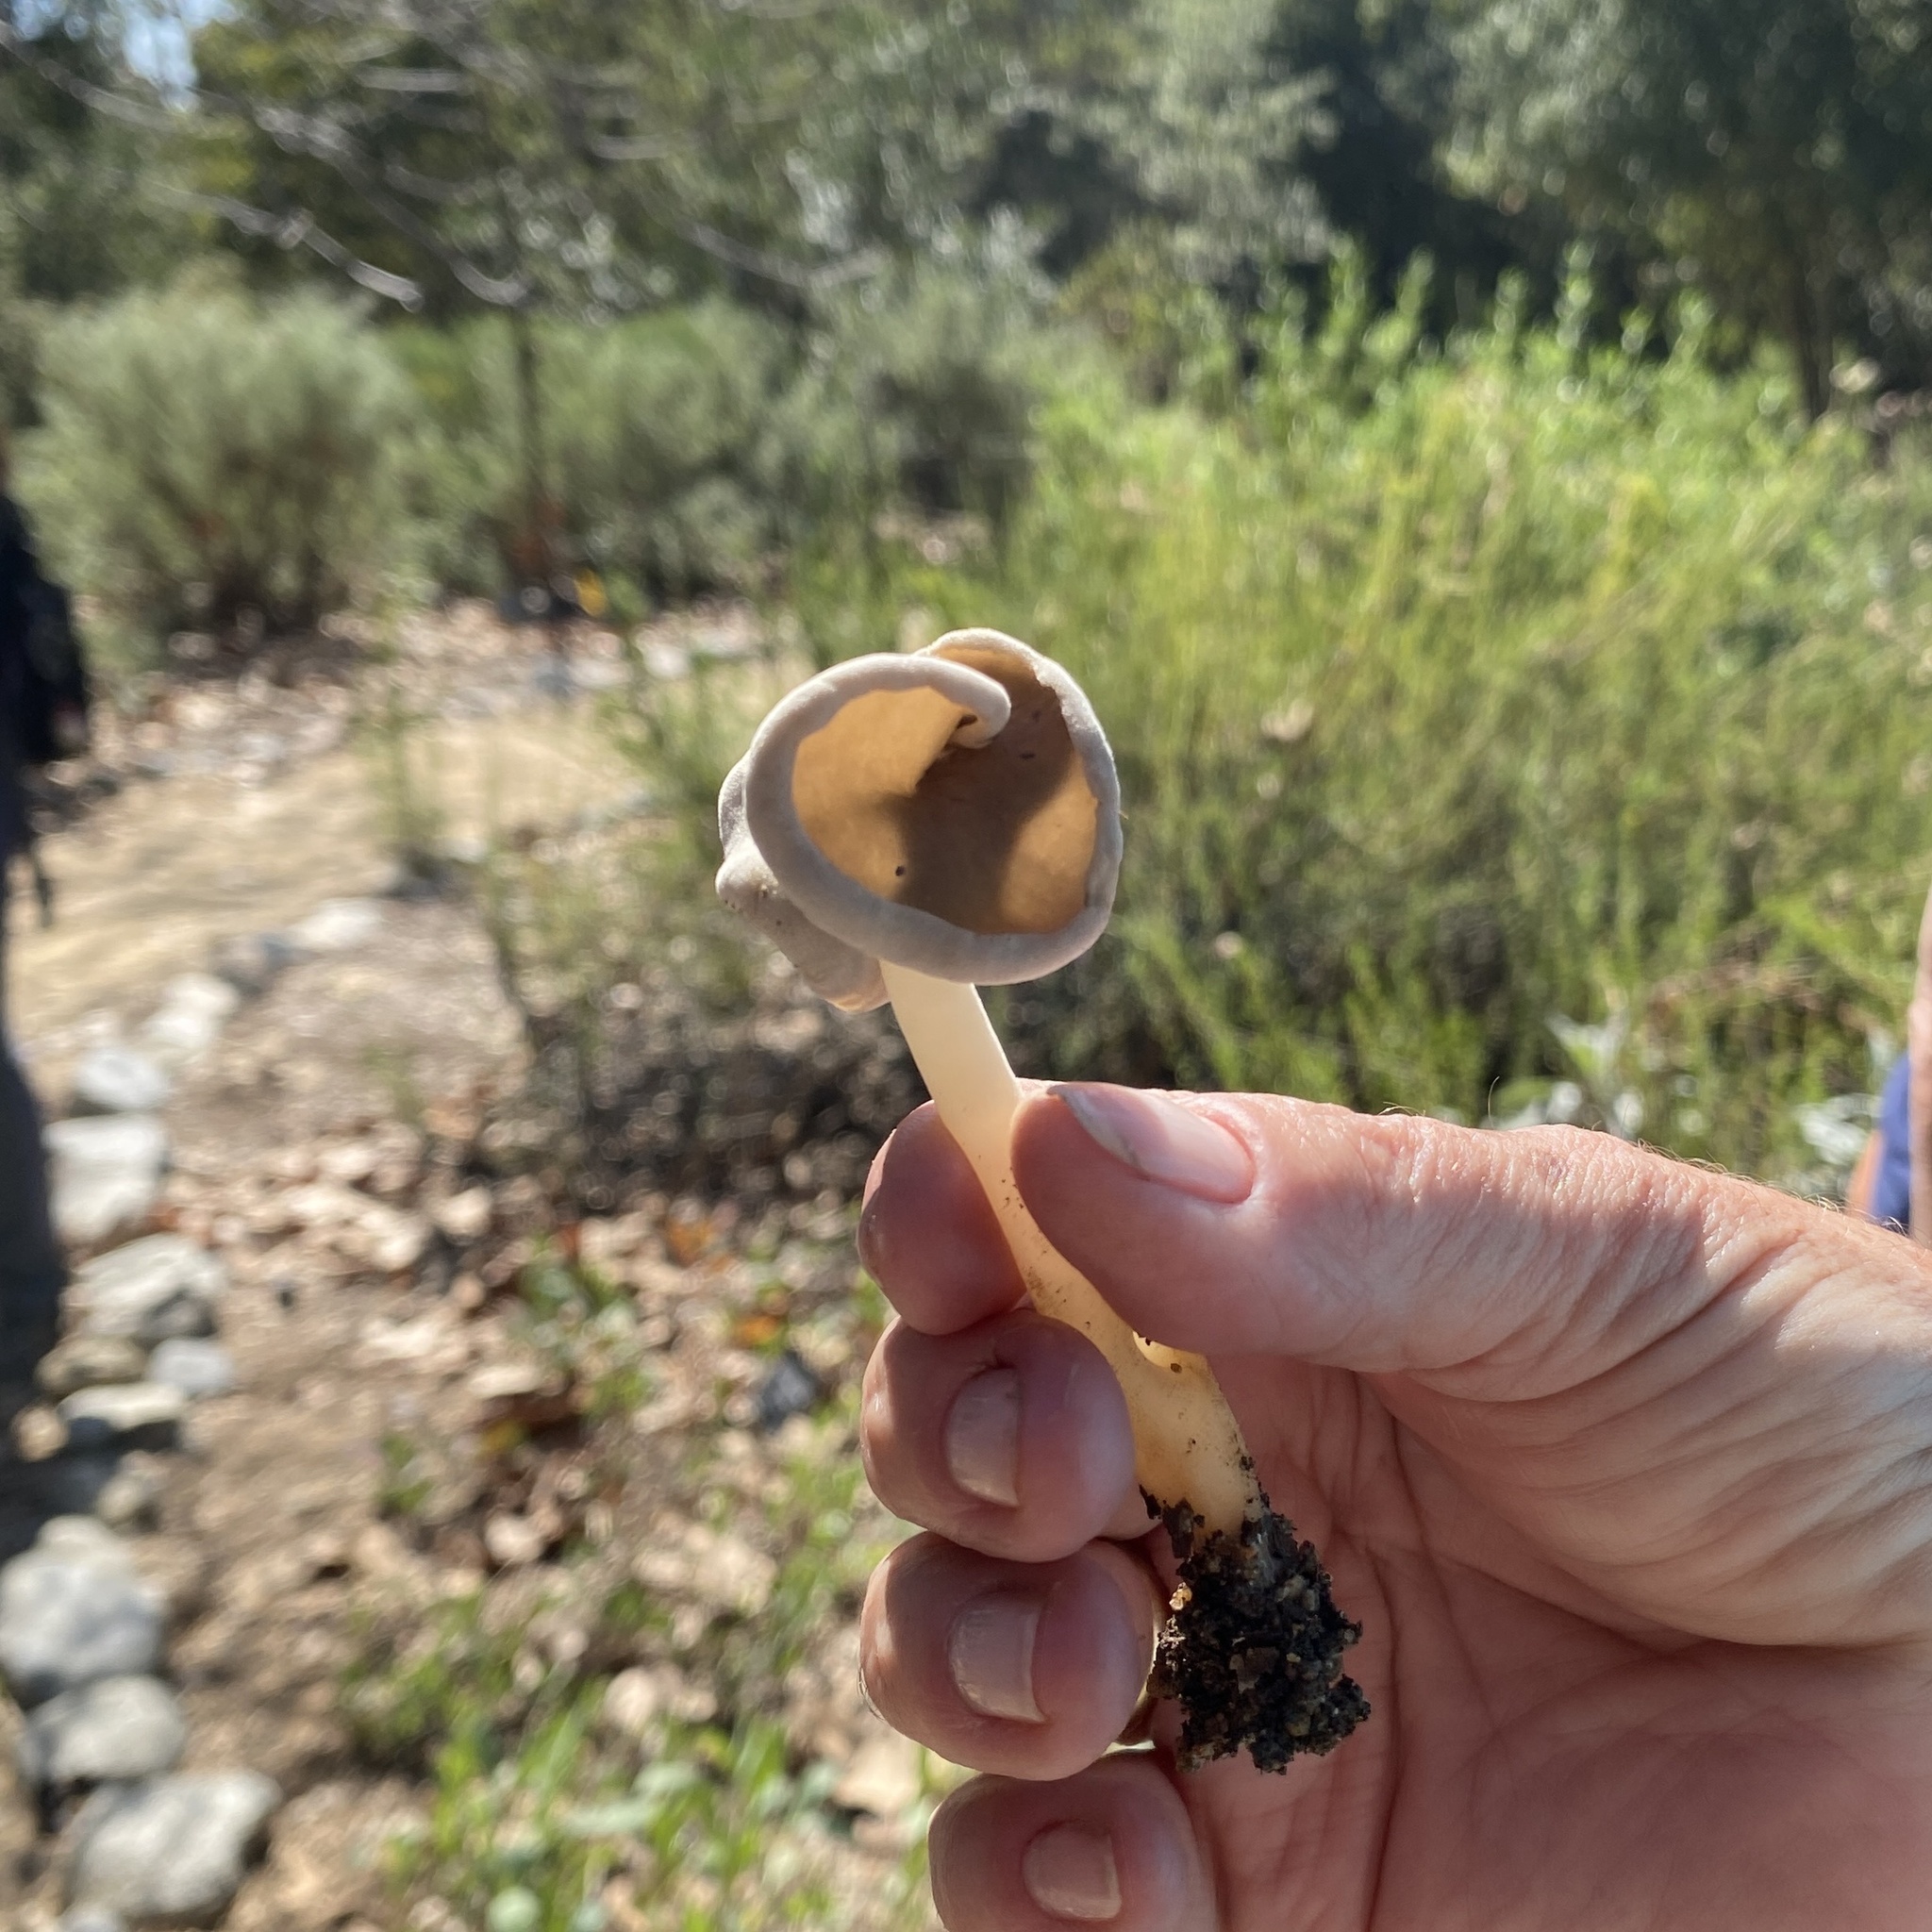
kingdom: Fungi
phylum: Ascomycota
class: Pezizomycetes
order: Pezizales
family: Helvellaceae
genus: Helvella
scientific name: Helvella compressa
